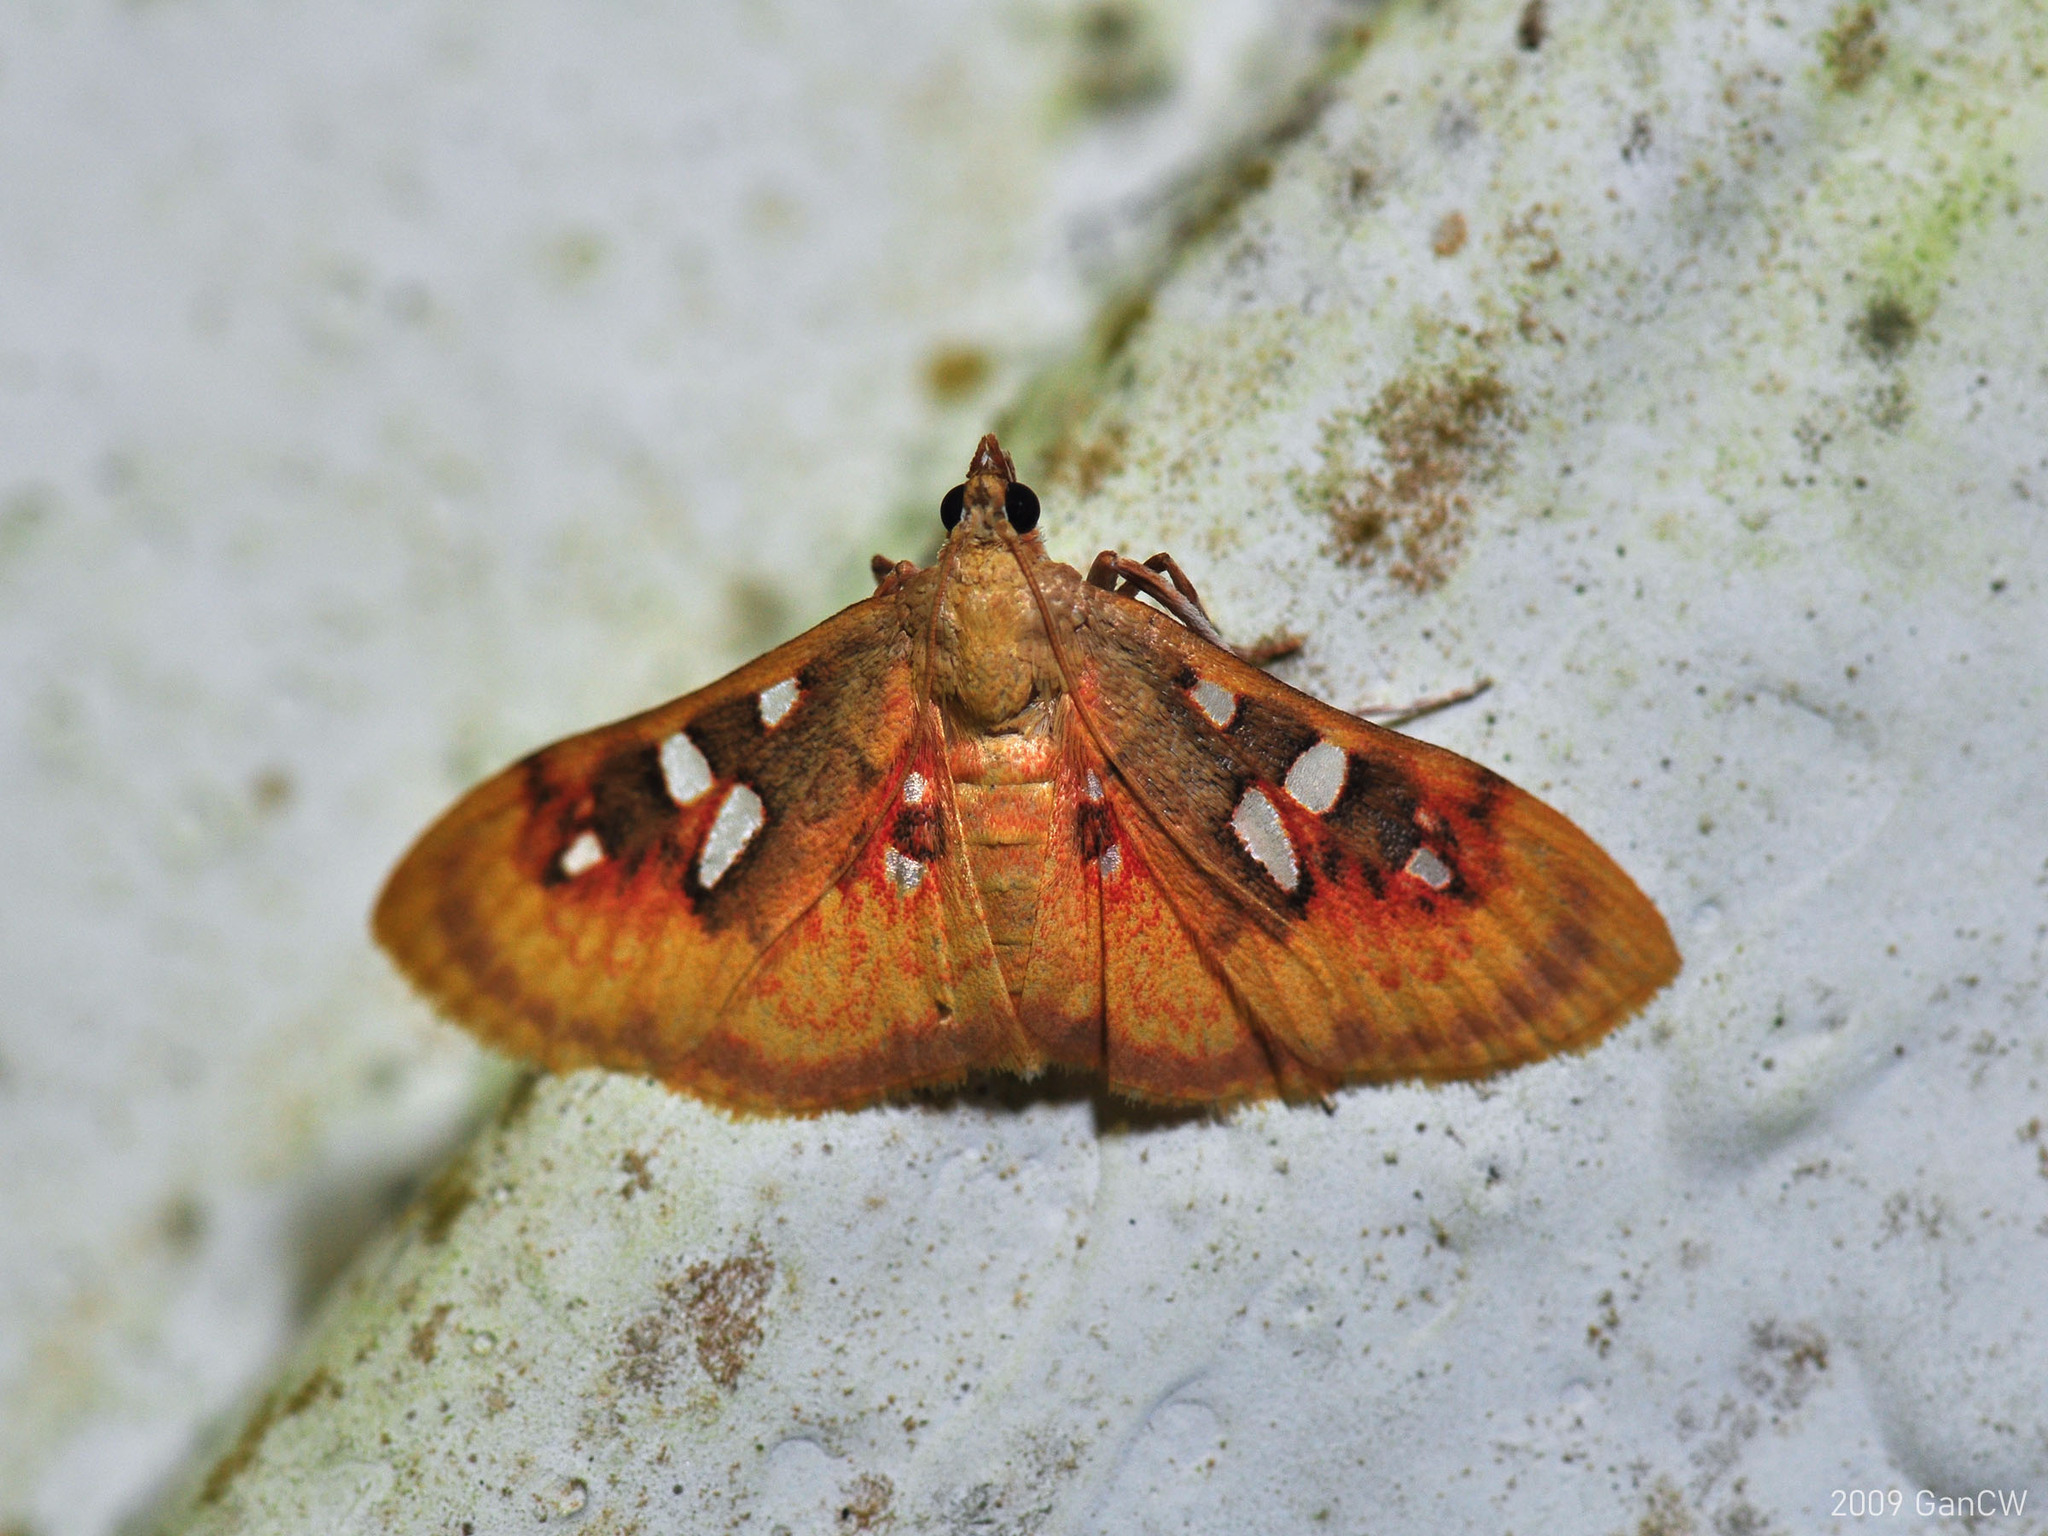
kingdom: Animalia
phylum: Arthropoda
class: Insecta
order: Lepidoptera
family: Crambidae
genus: Sameodes
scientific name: Sameodes
